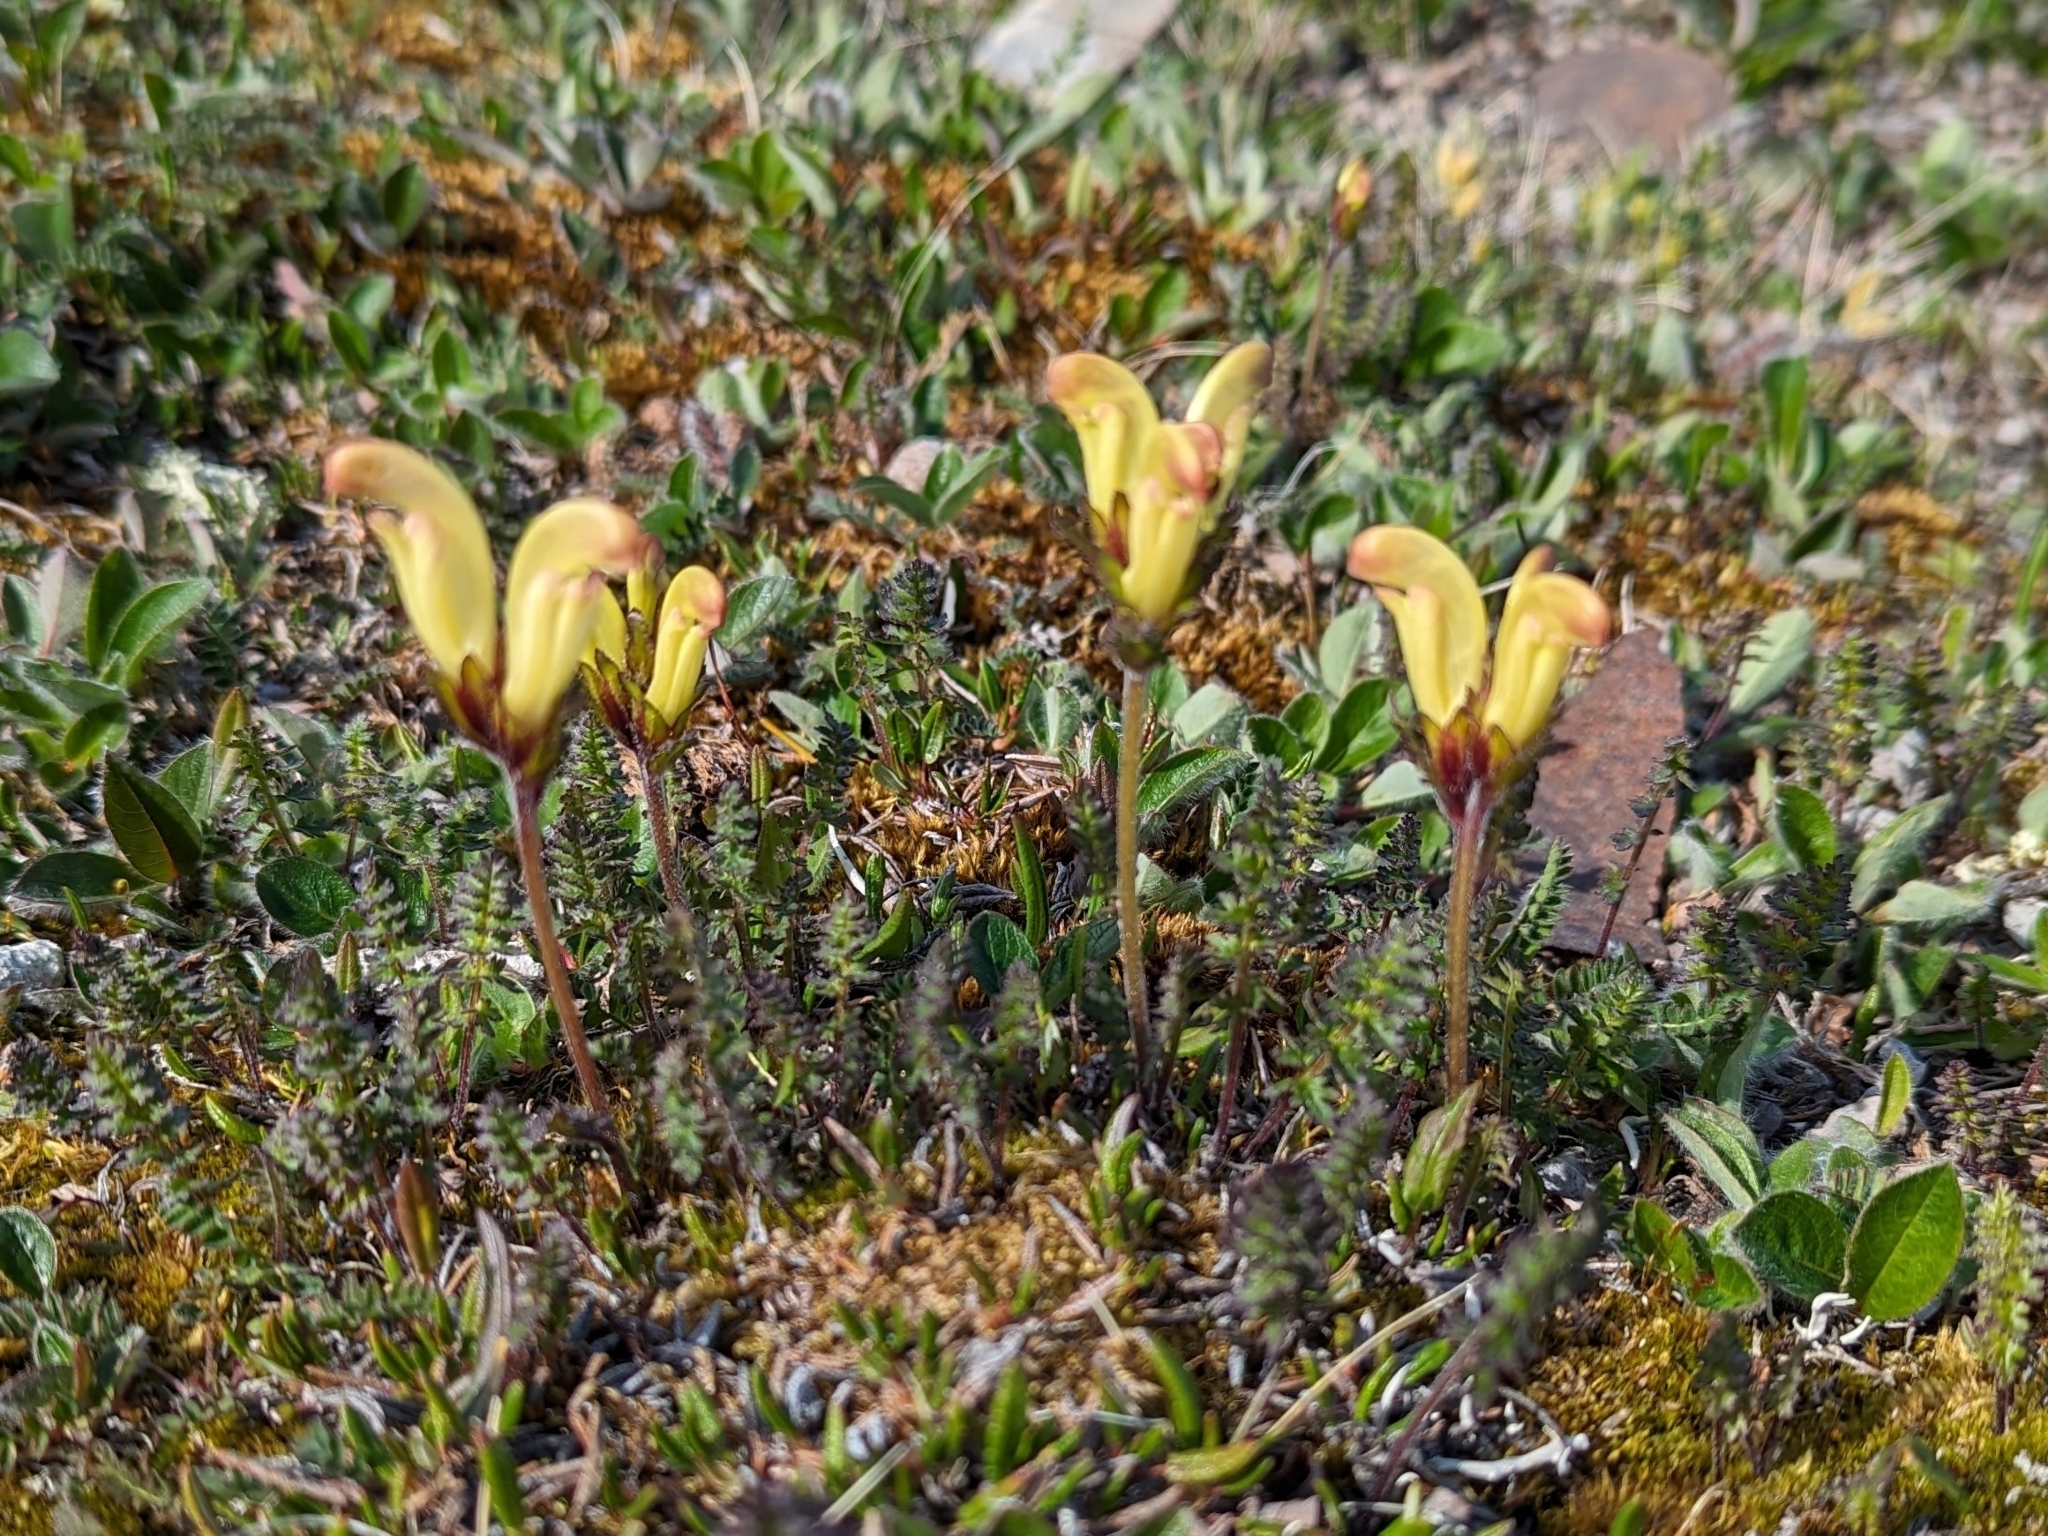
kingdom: Plantae
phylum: Tracheophyta
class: Magnoliopsida
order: Lamiales
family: Orobanchaceae
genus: Pedicularis
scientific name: Pedicularis capitata
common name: Capitate lousewort
